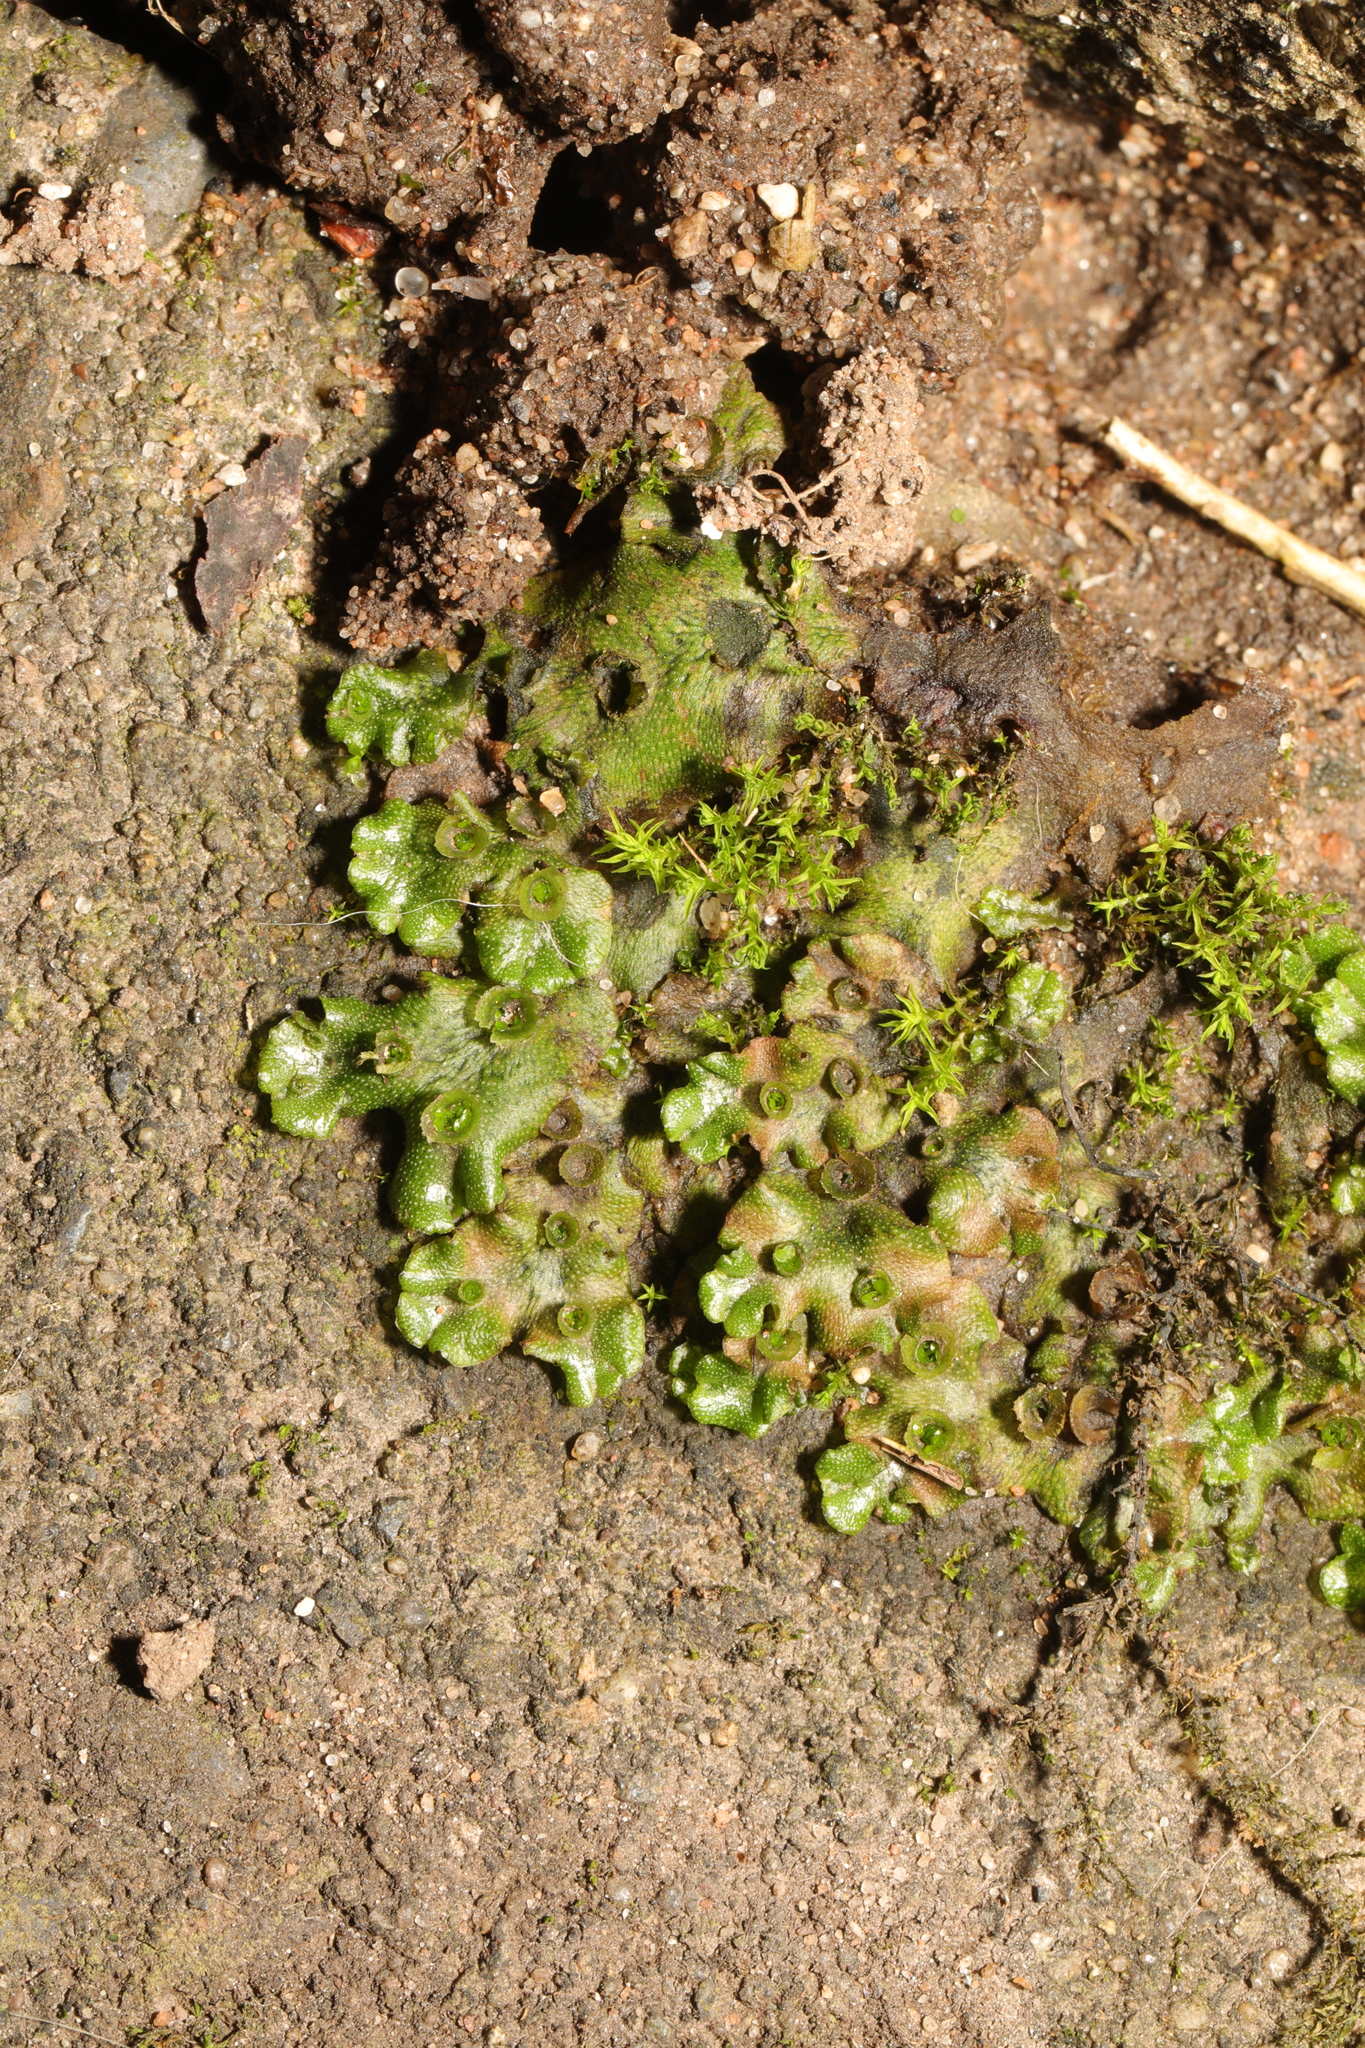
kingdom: Plantae
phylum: Marchantiophyta
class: Marchantiopsida
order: Marchantiales
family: Marchantiaceae
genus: Marchantia
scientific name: Marchantia polymorpha
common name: Common liverwort
